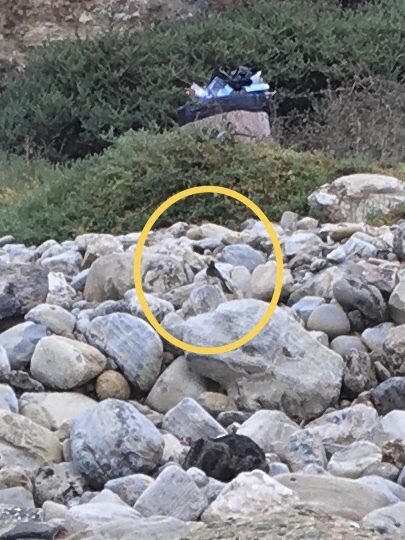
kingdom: Animalia
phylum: Chordata
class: Aves
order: Passeriformes
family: Tyrannidae
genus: Sayornis
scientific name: Sayornis nigricans
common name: Black phoebe
